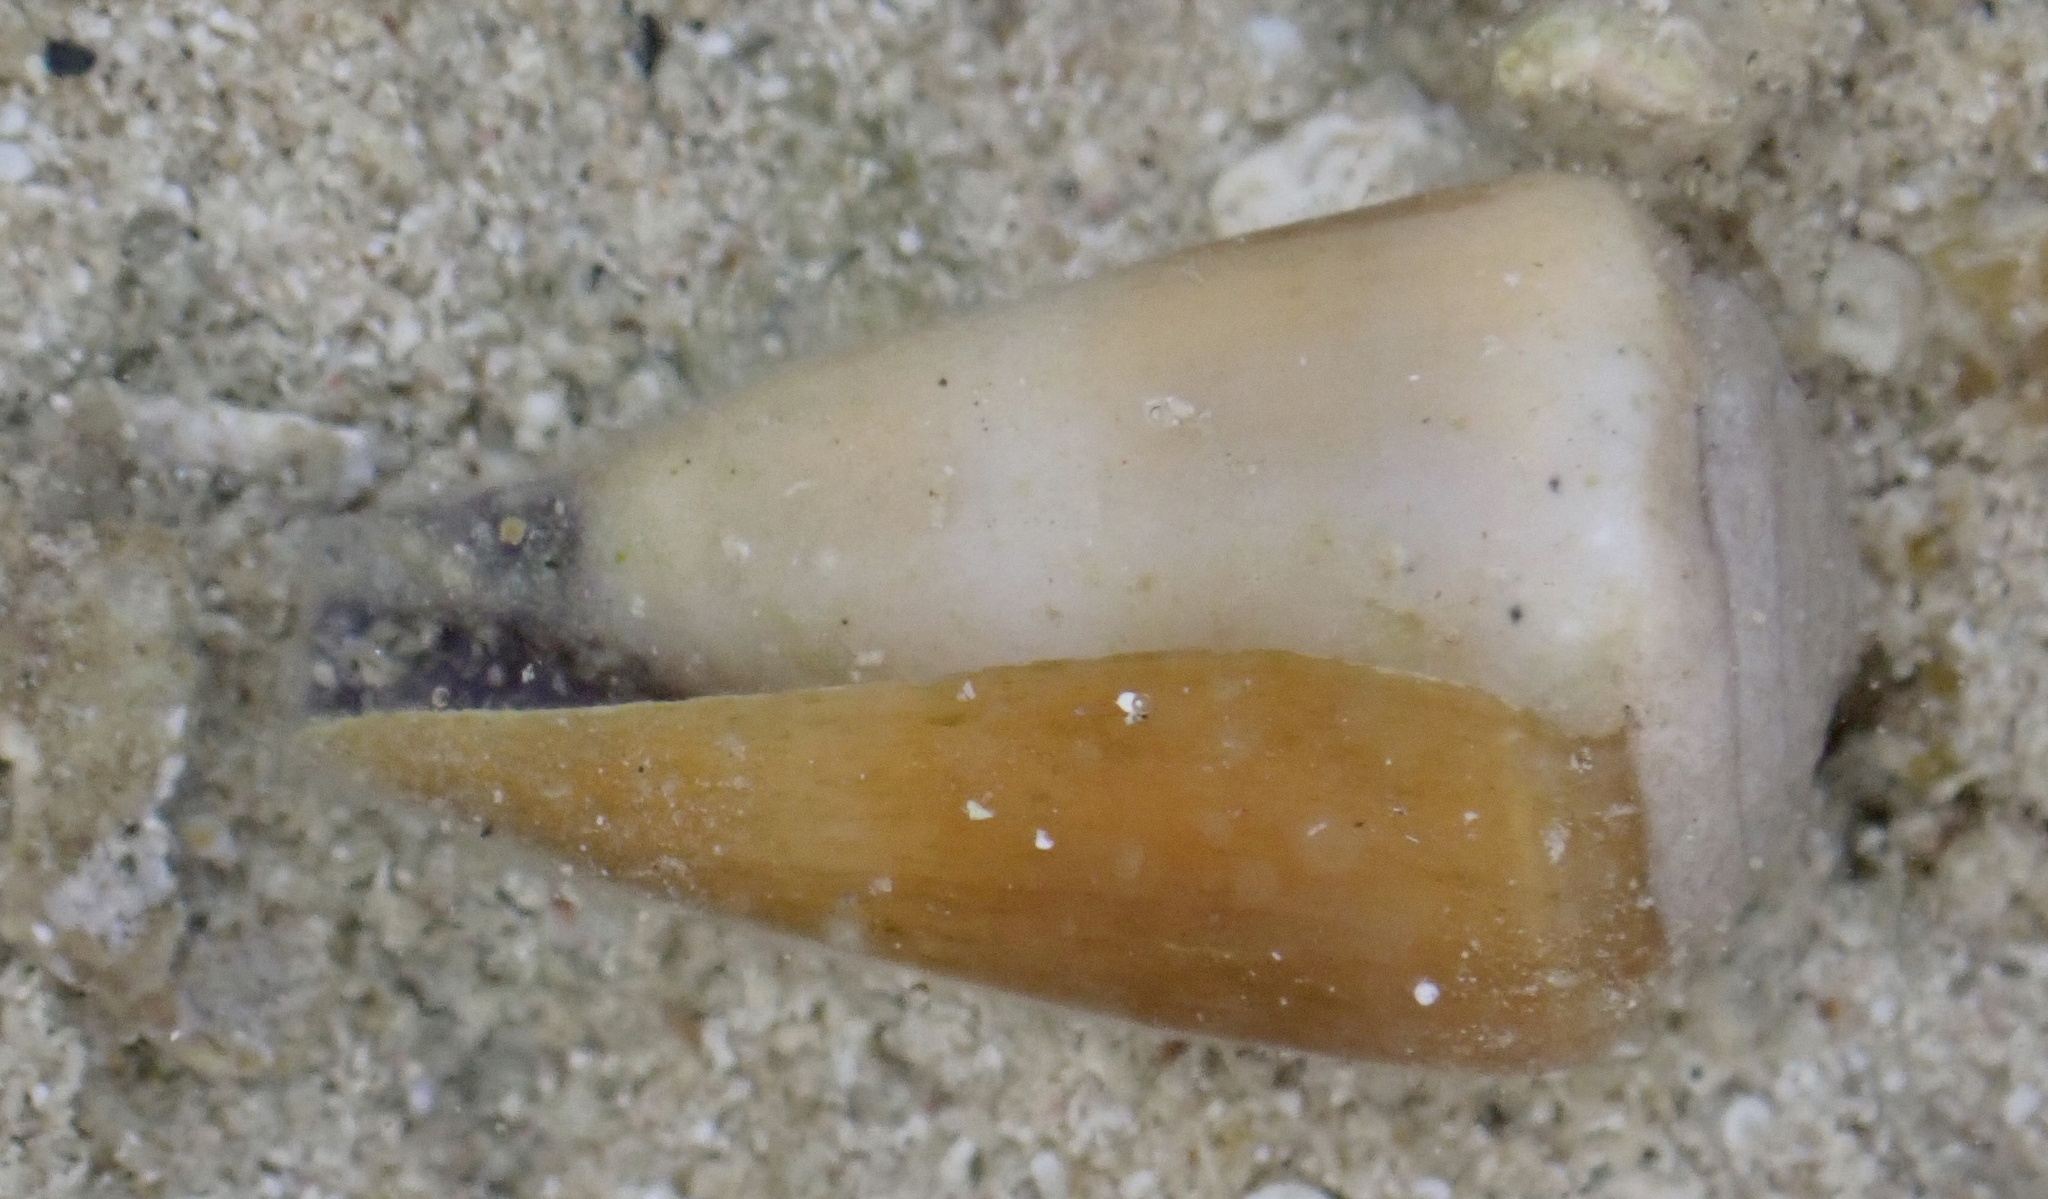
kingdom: Animalia
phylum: Mollusca
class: Gastropoda
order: Neogastropoda
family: Conidae
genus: Conus
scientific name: Conus virgo
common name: Virgin cone
